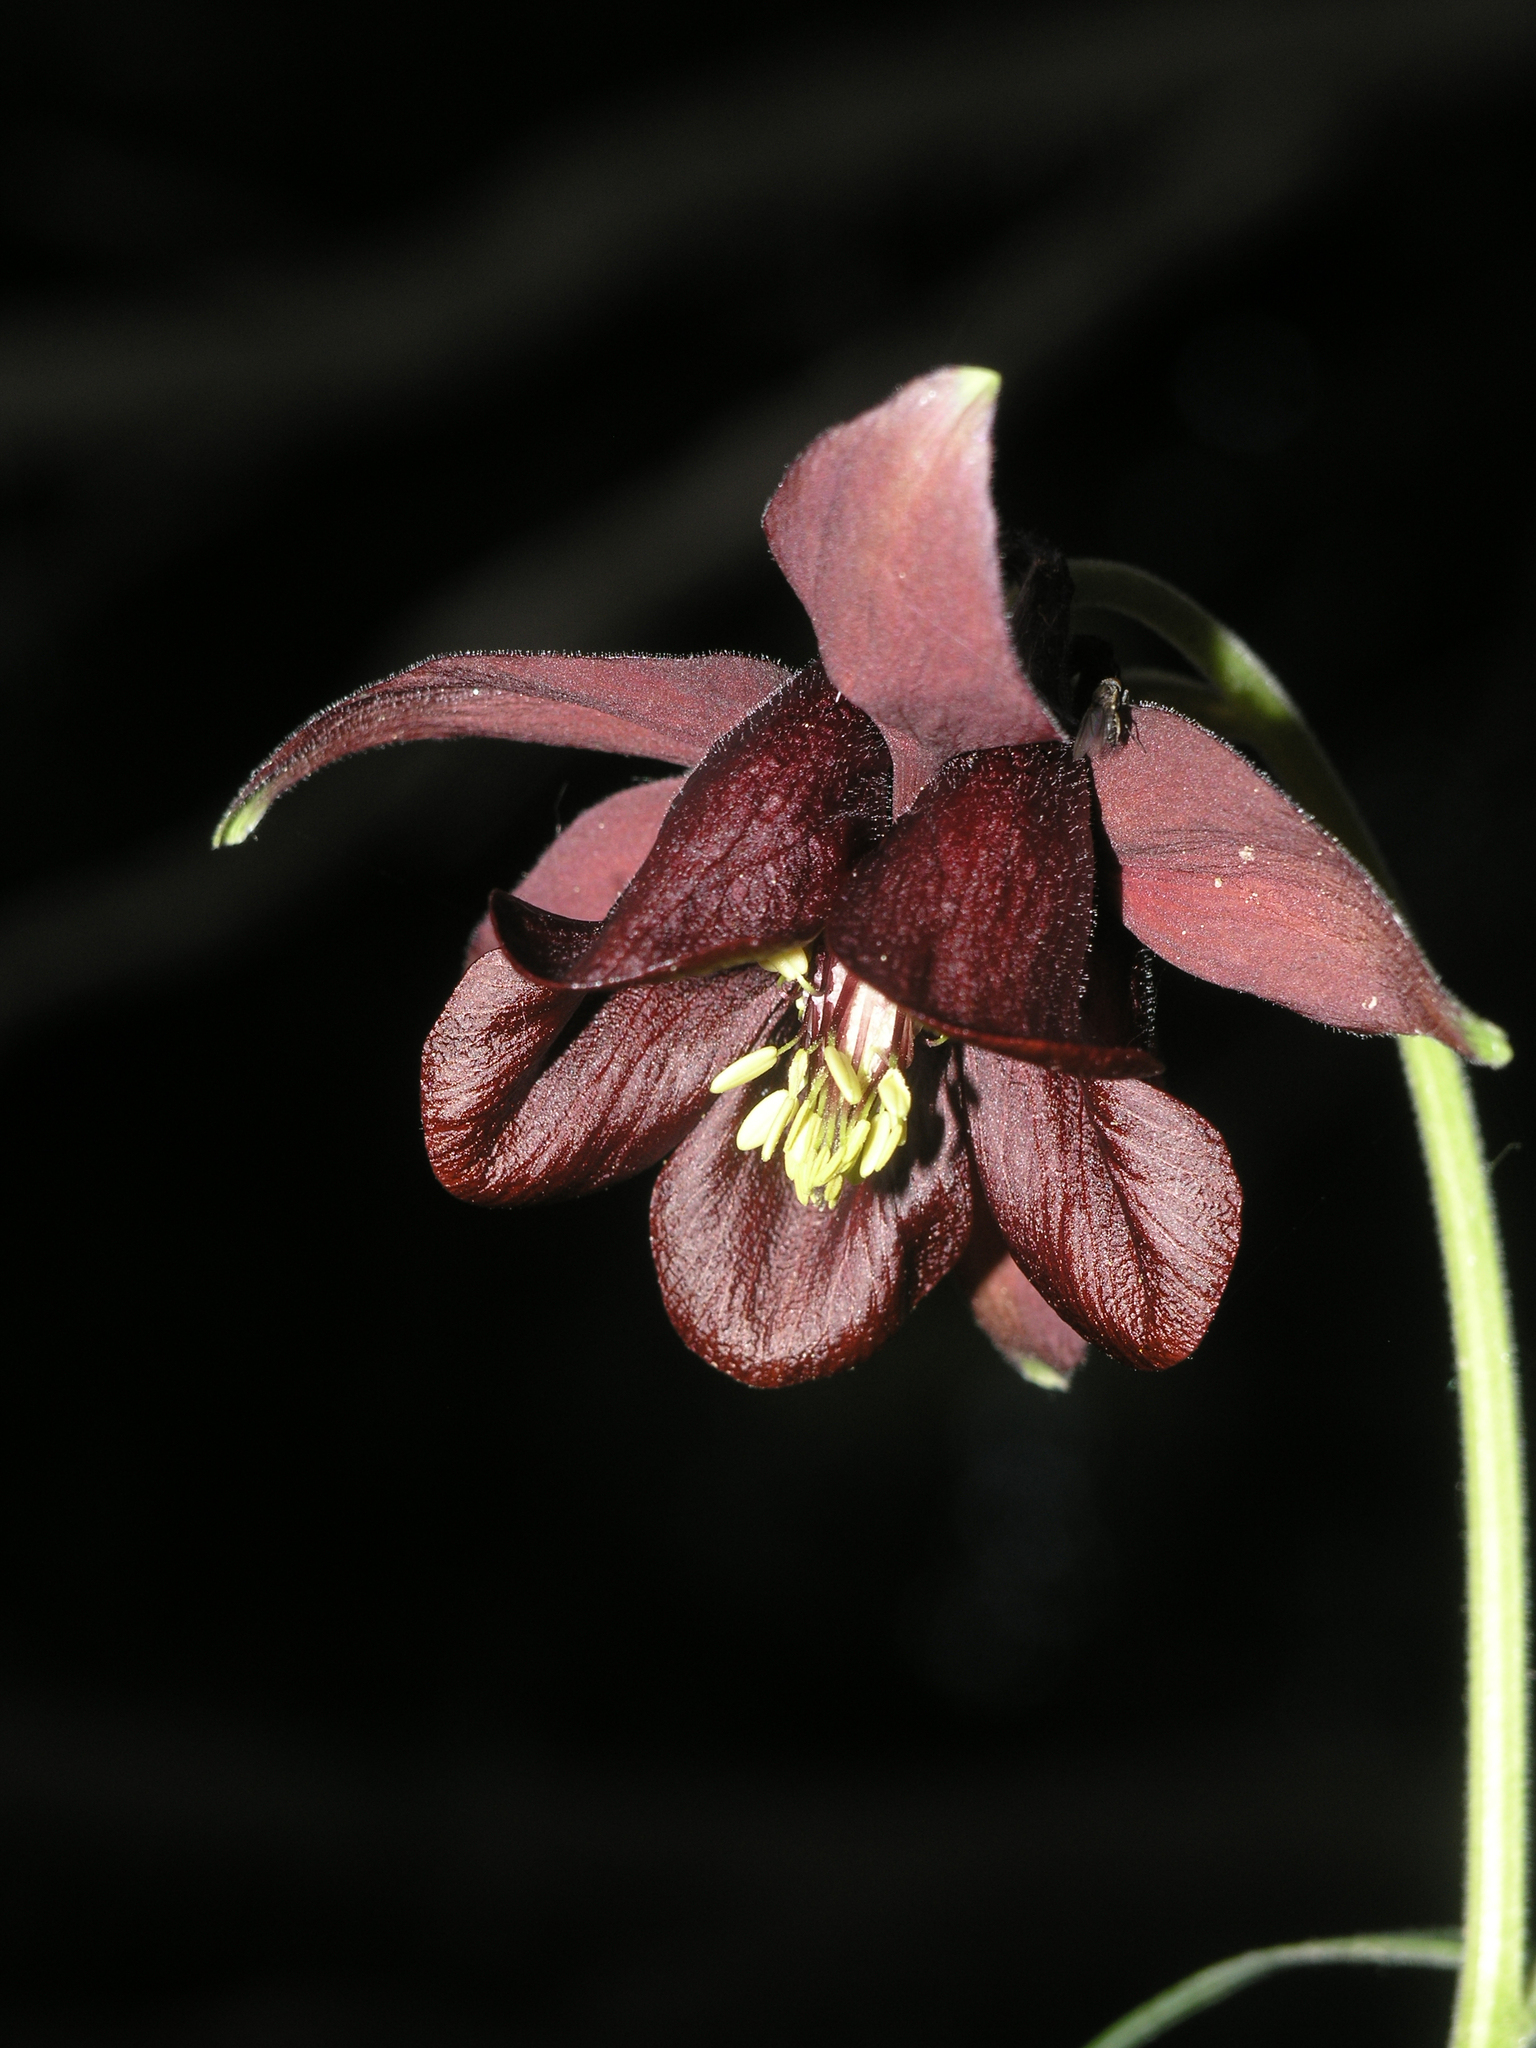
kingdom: Plantae
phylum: Tracheophyta
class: Magnoliopsida
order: Ranunculales
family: Ranunculaceae
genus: Aquilegia
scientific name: Aquilegia atrovinosa
